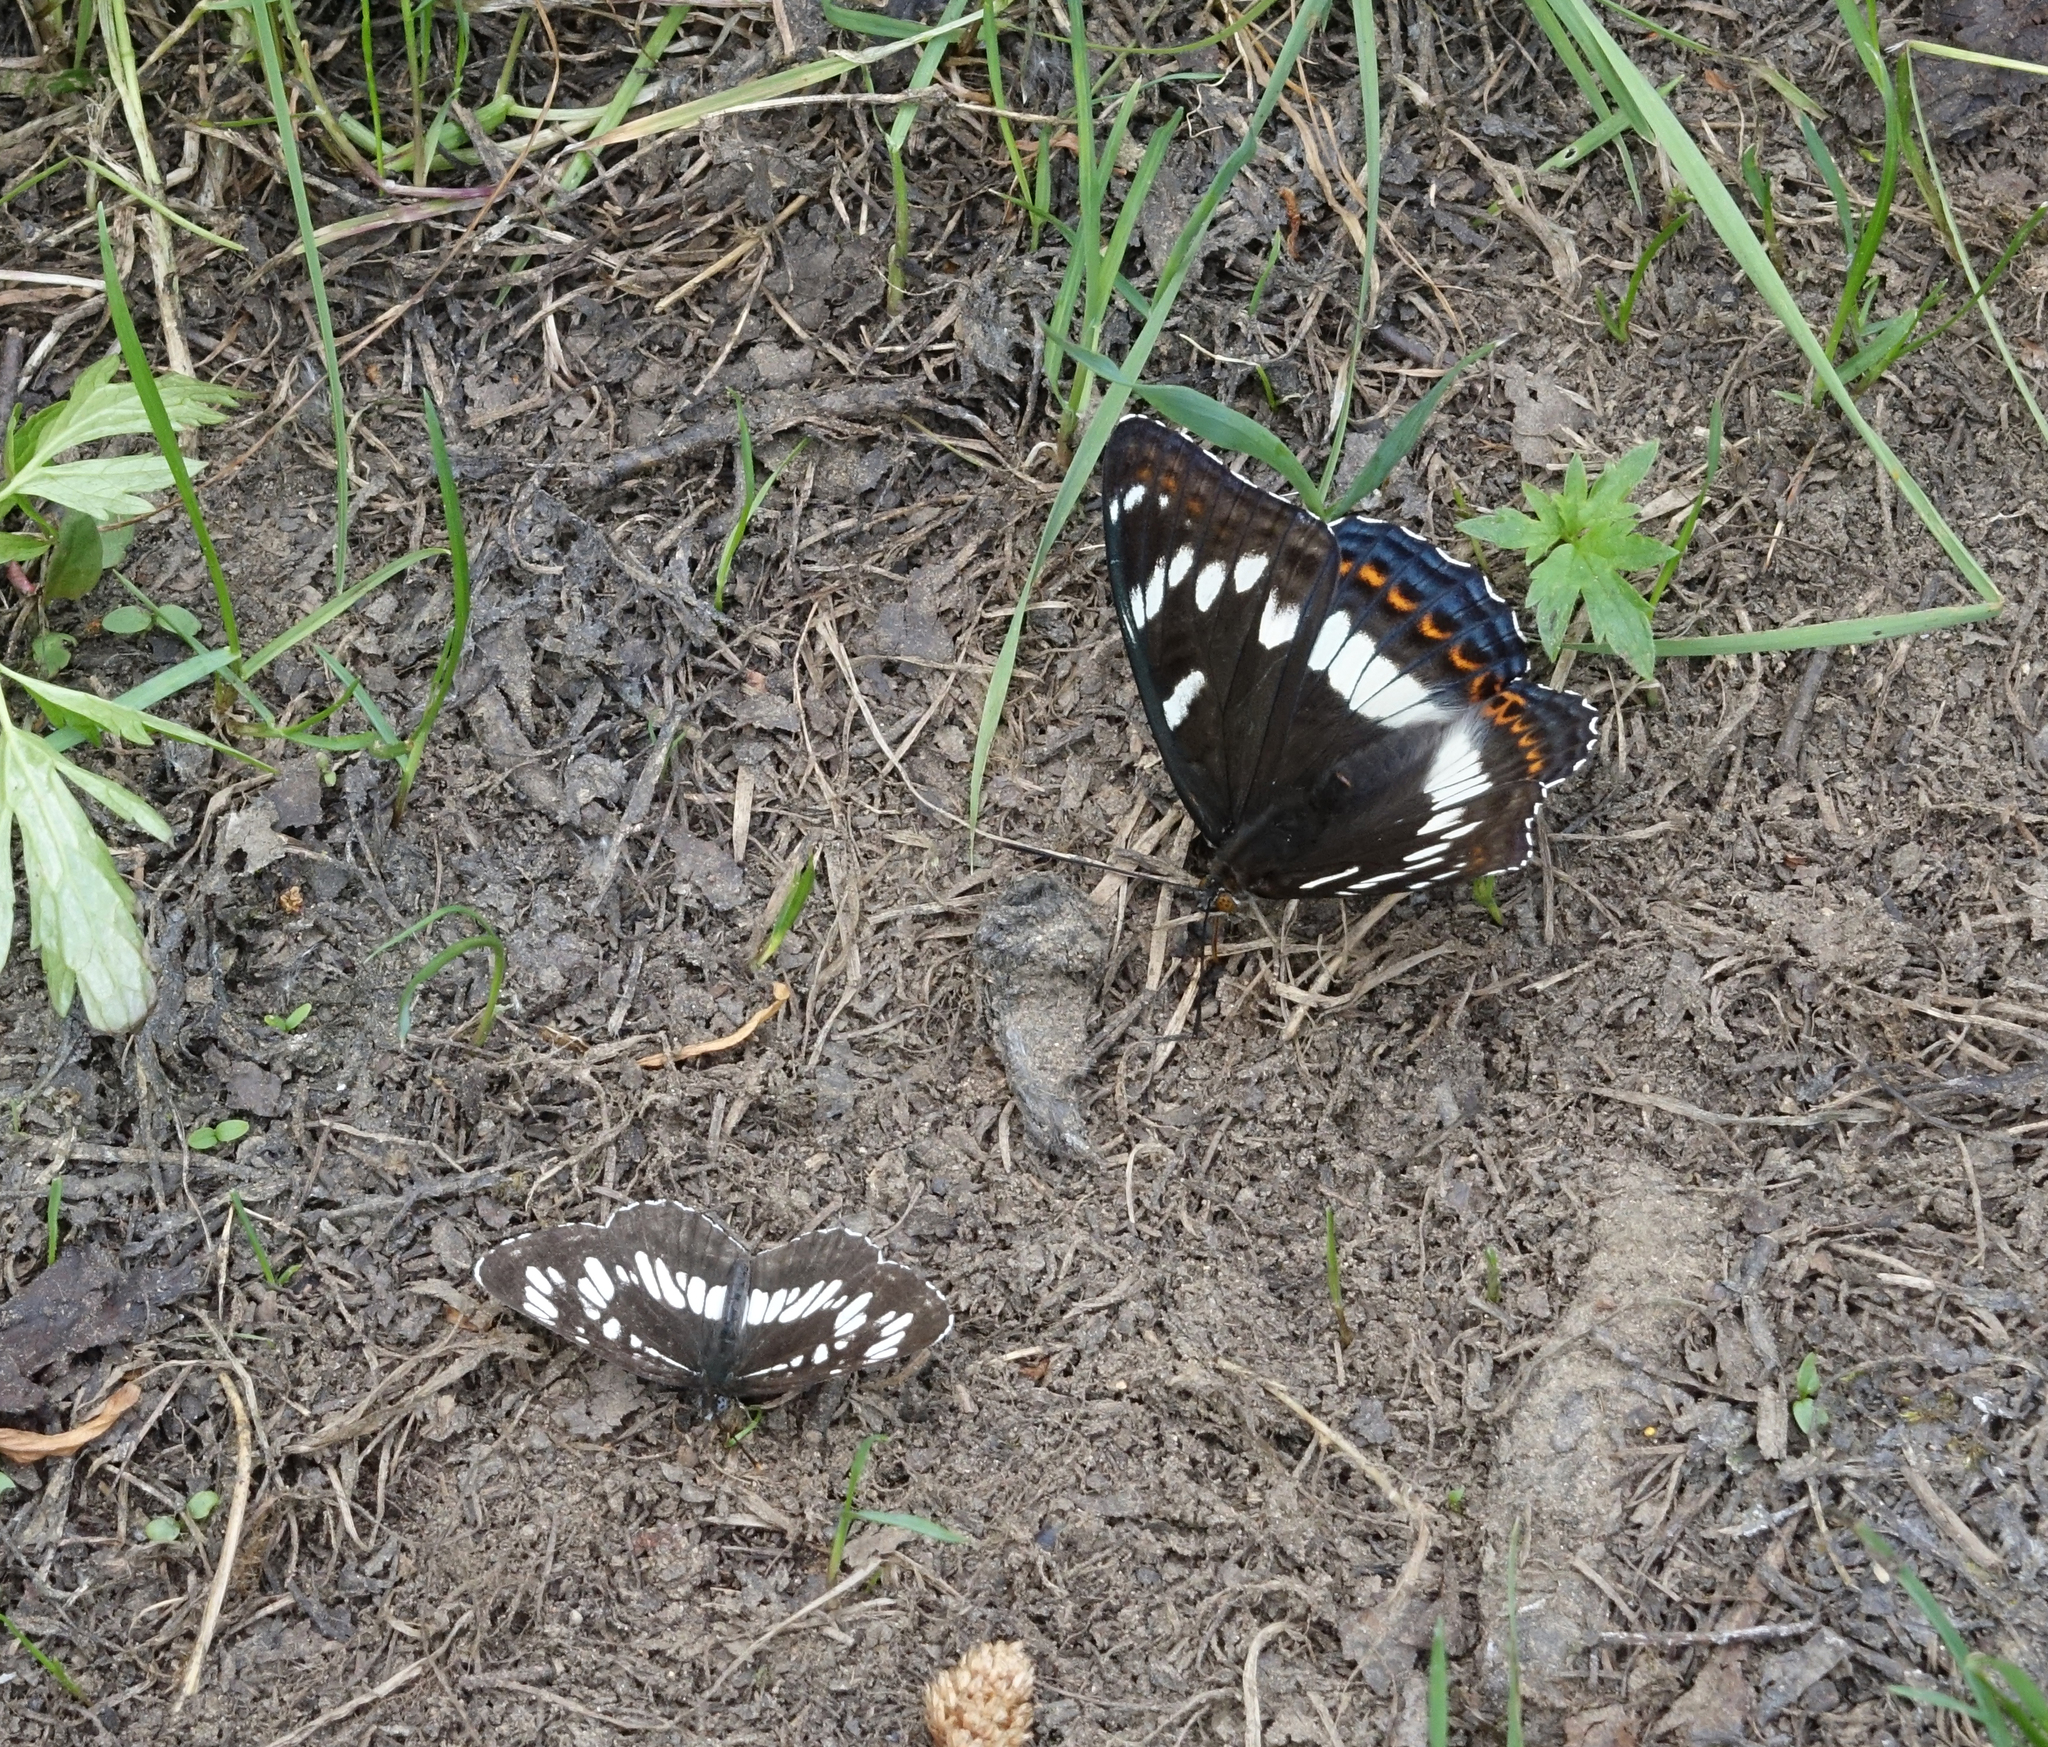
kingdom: Animalia
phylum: Arthropoda
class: Insecta
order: Lepidoptera
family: Nymphalidae
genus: Limenitis
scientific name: Limenitis populi
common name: Poplar admiral
